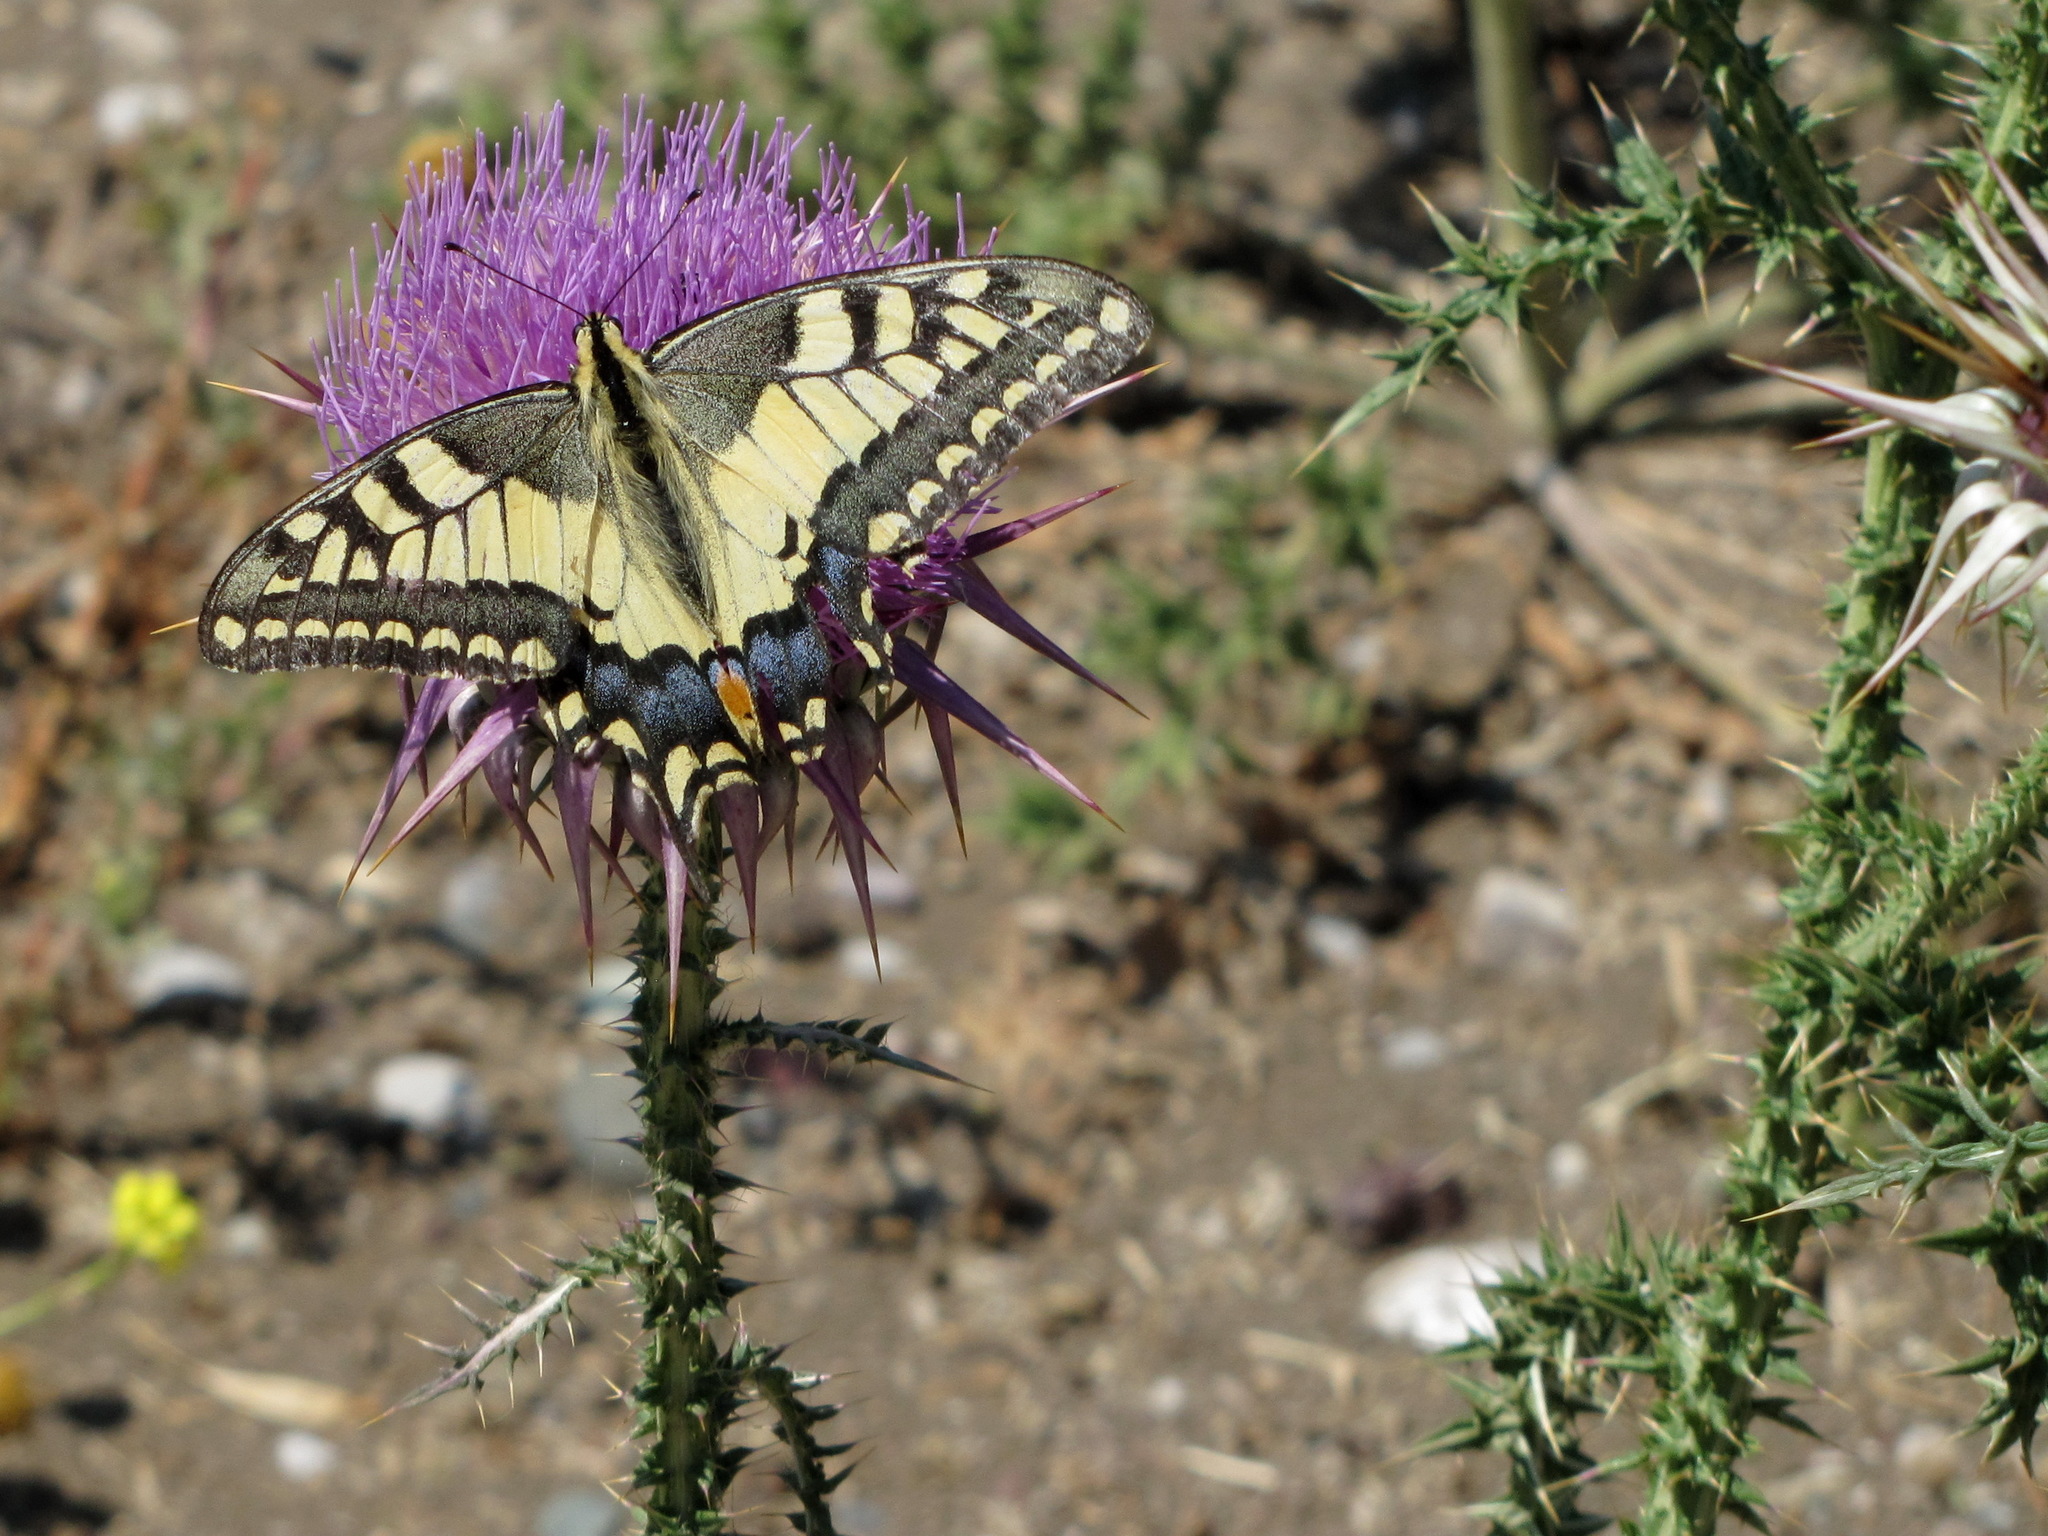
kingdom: Animalia
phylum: Arthropoda
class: Insecta
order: Lepidoptera
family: Papilionidae
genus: Papilio
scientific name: Papilio machaon
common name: Swallowtail
